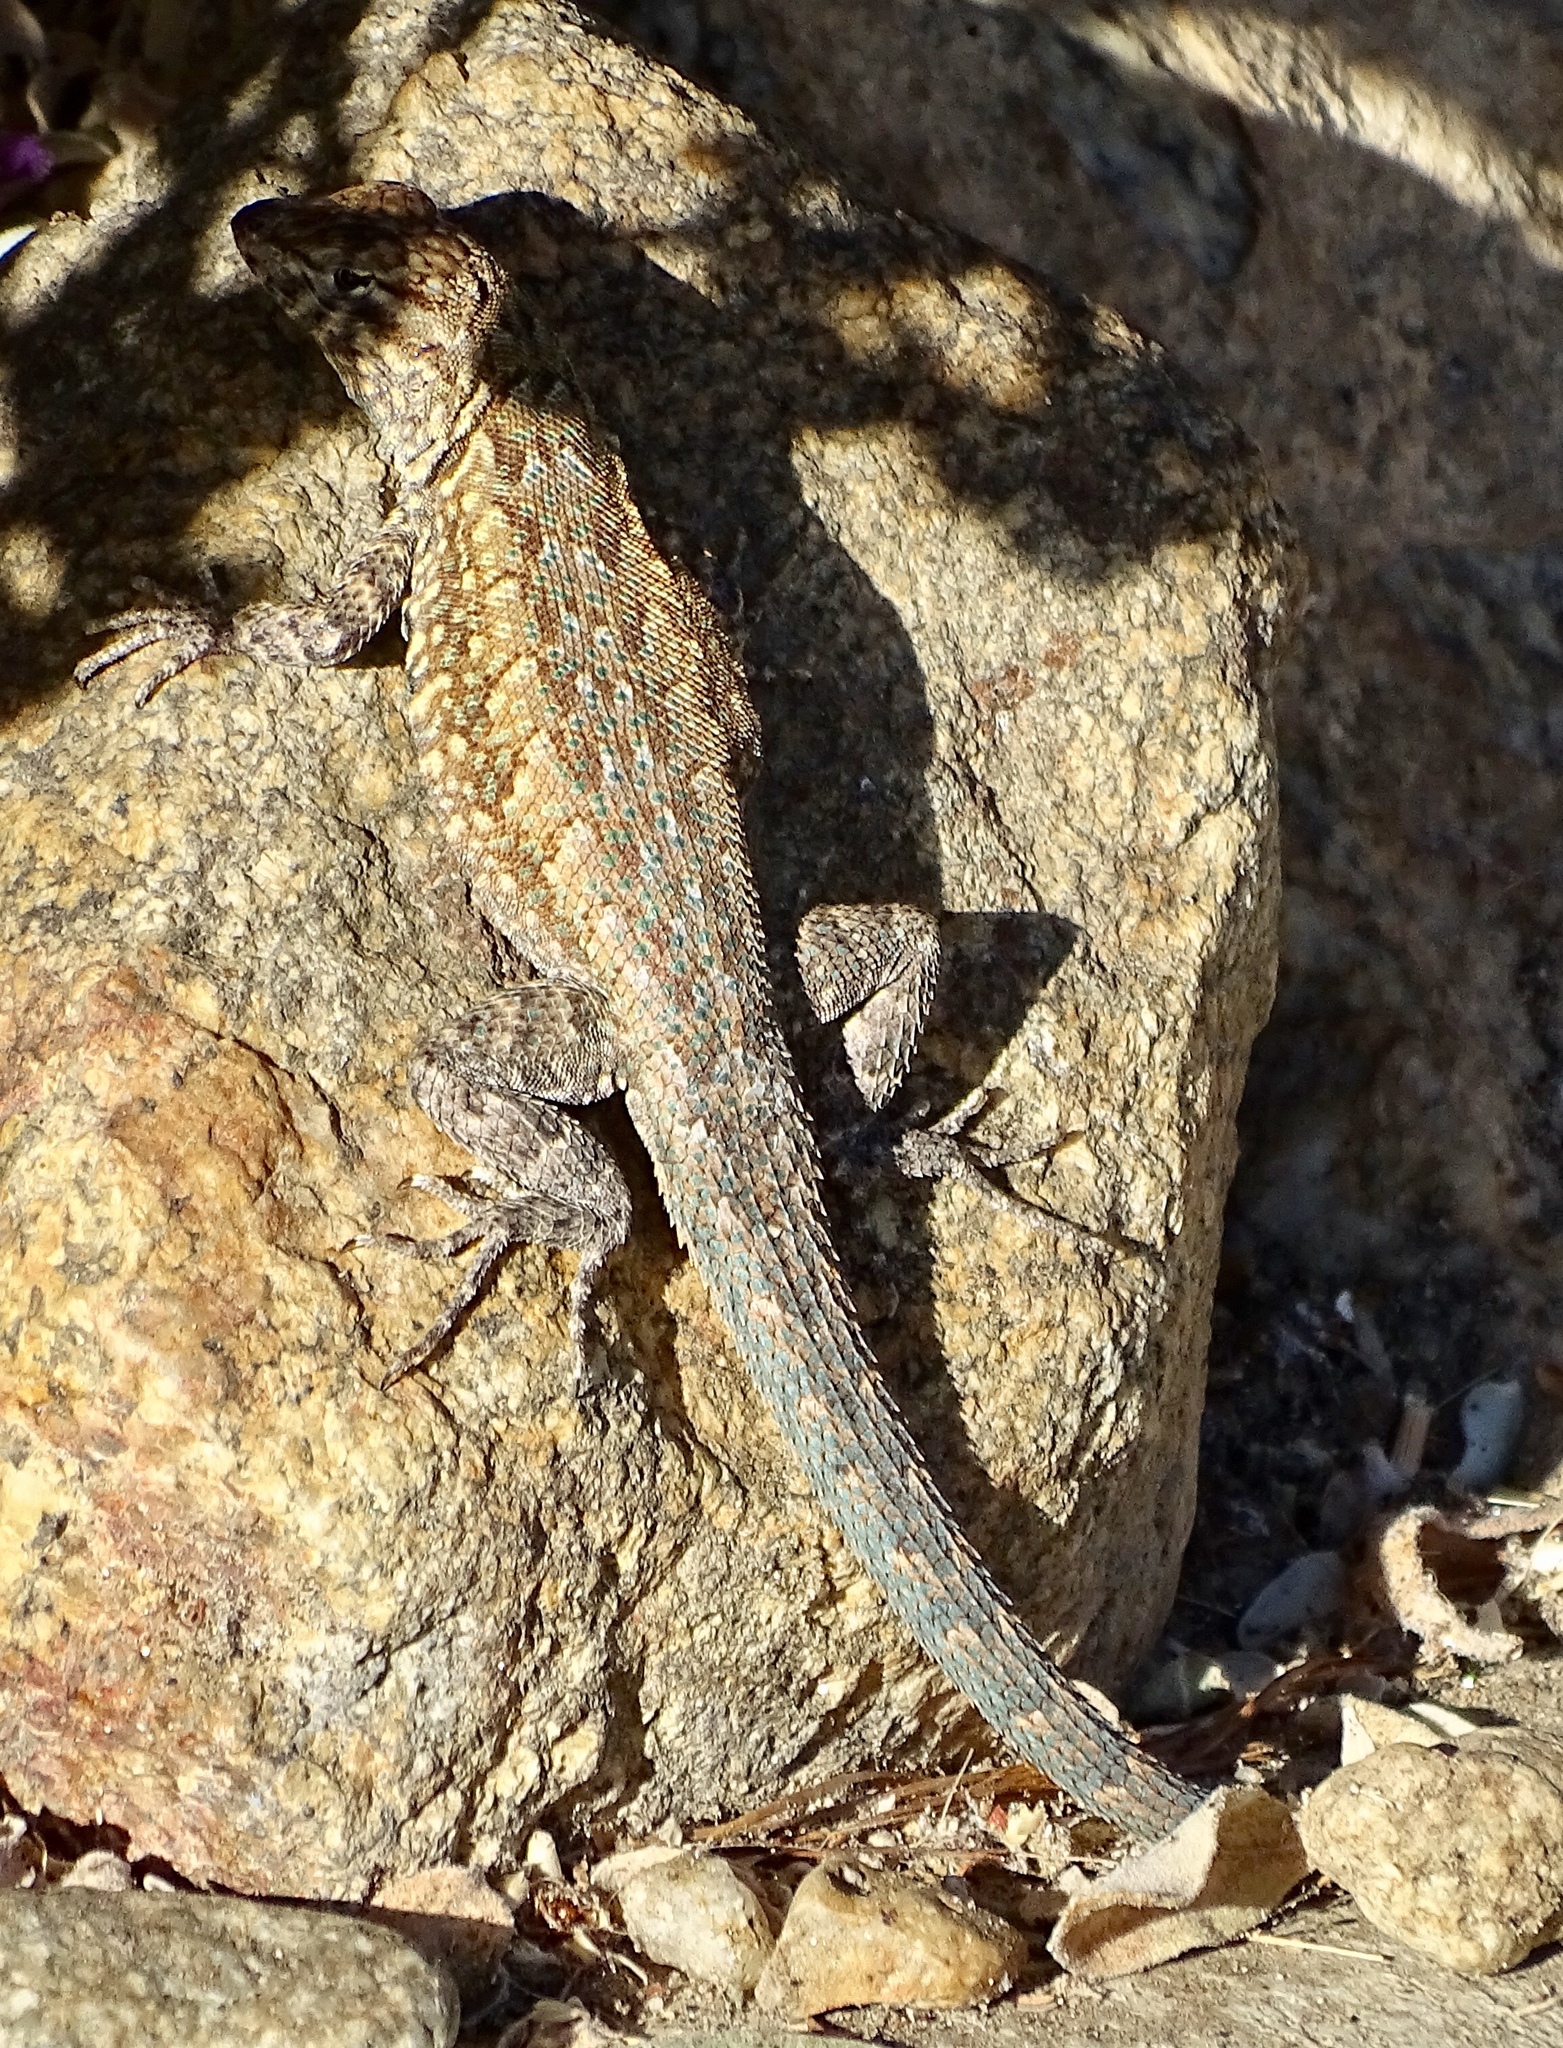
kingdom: Animalia
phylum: Chordata
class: Squamata
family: Phrynosomatidae
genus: Uta
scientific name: Uta stansburiana
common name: Side-blotched lizard
